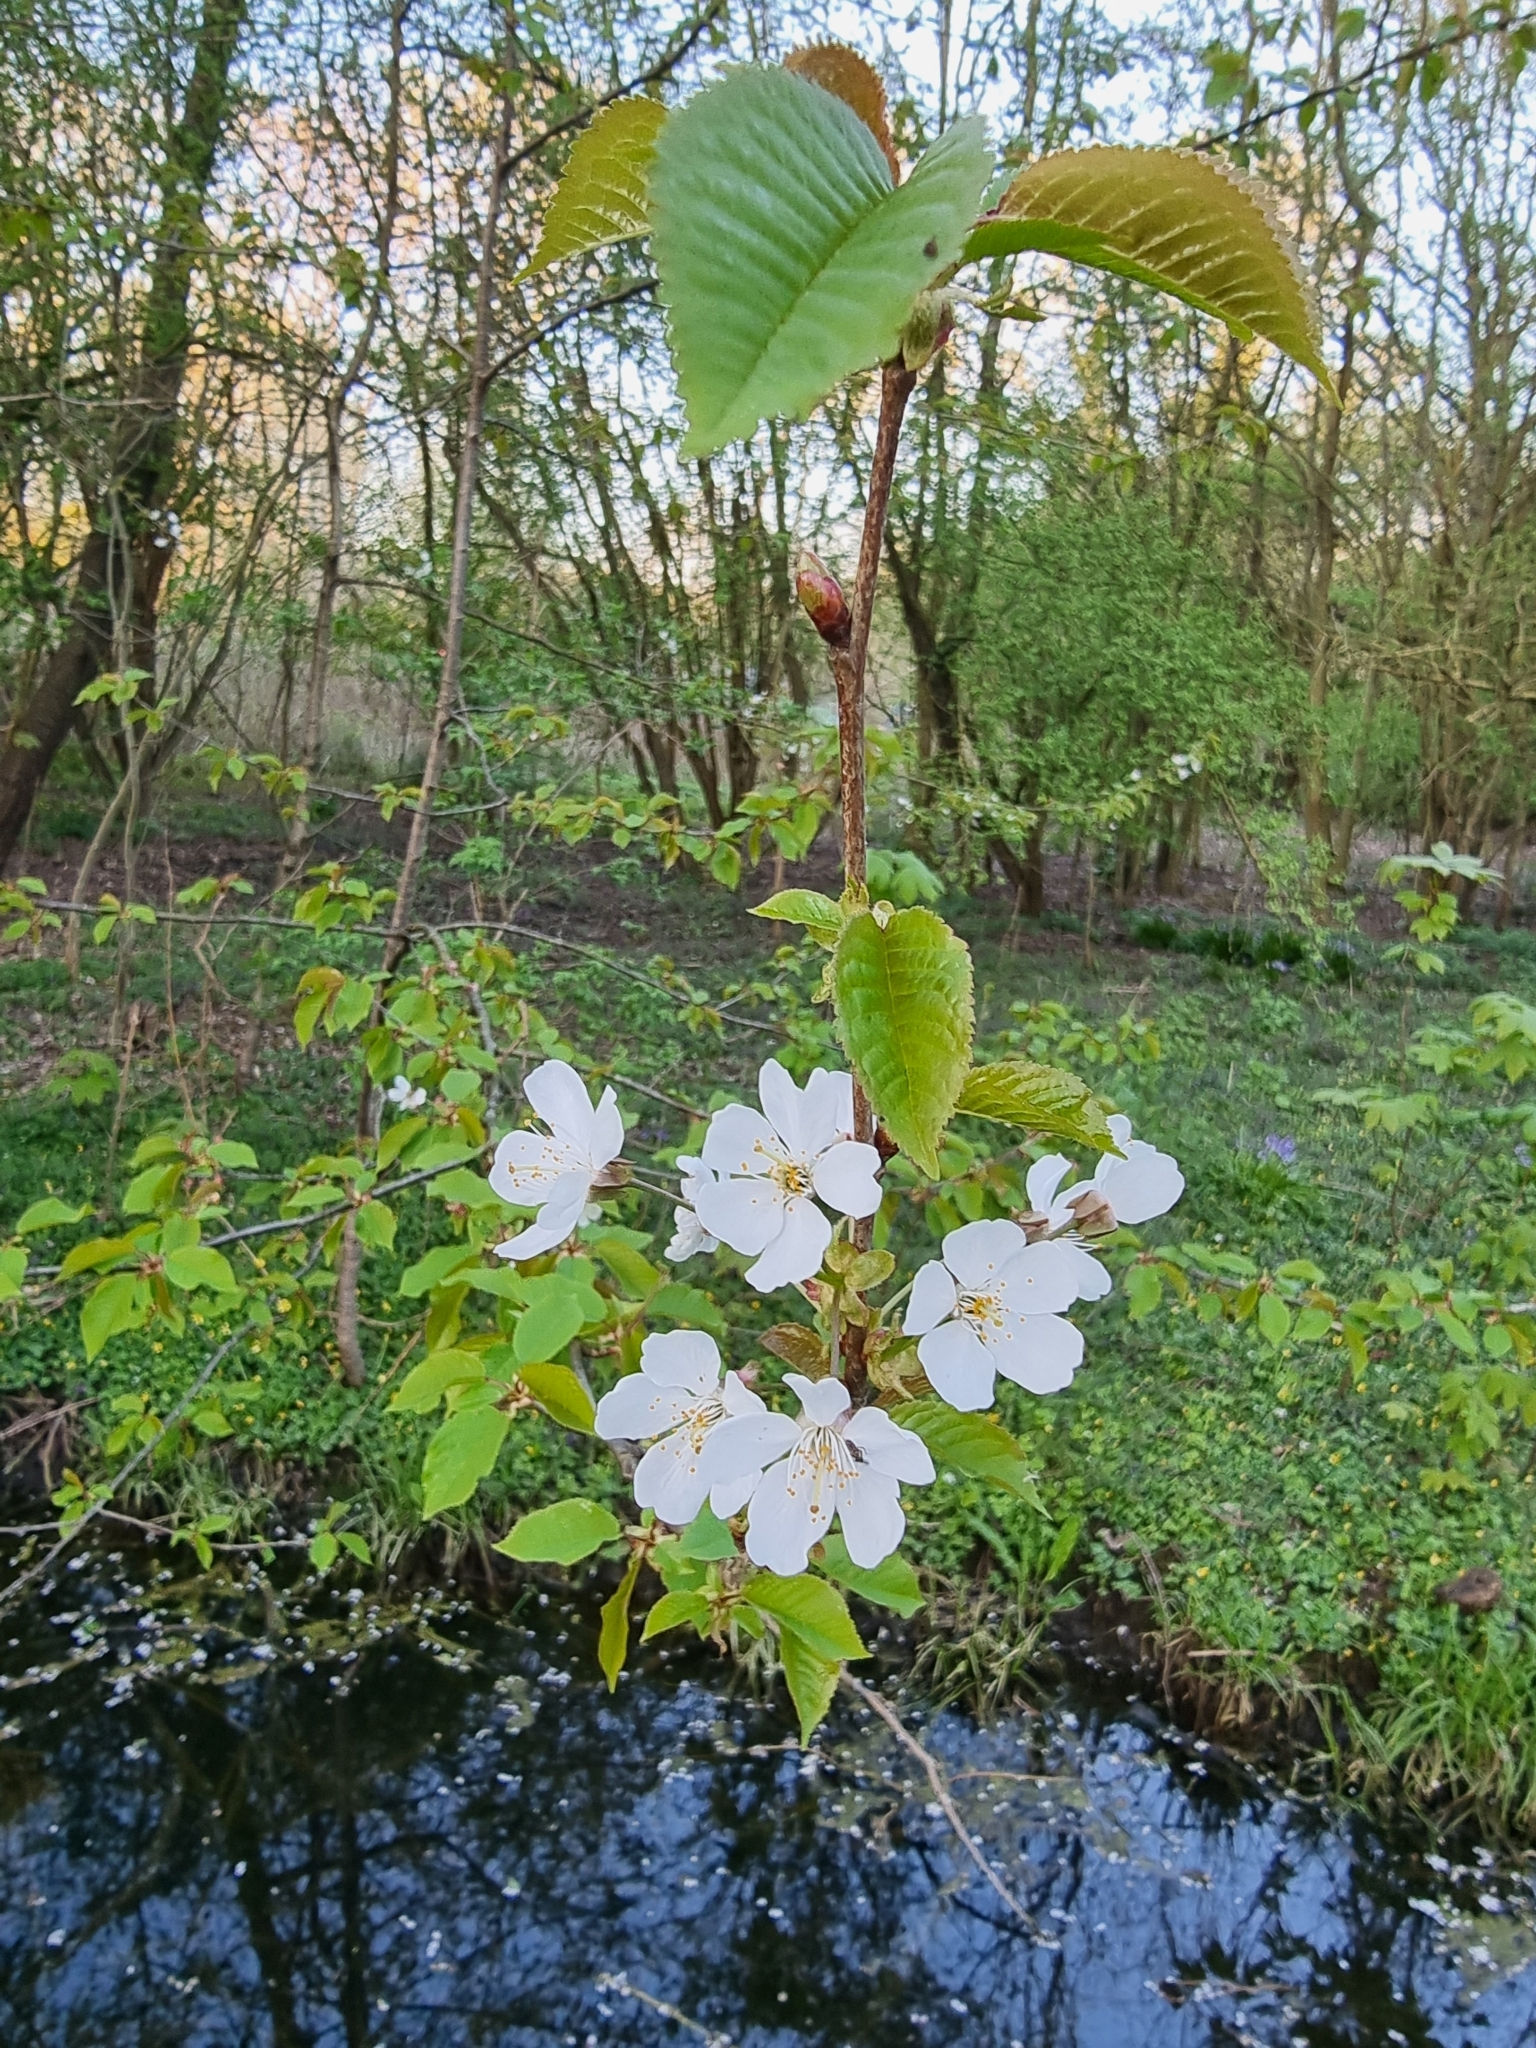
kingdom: Plantae
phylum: Tracheophyta
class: Magnoliopsida
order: Rosales
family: Rosaceae
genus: Prunus
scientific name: Prunus avium
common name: Sweet cherry
